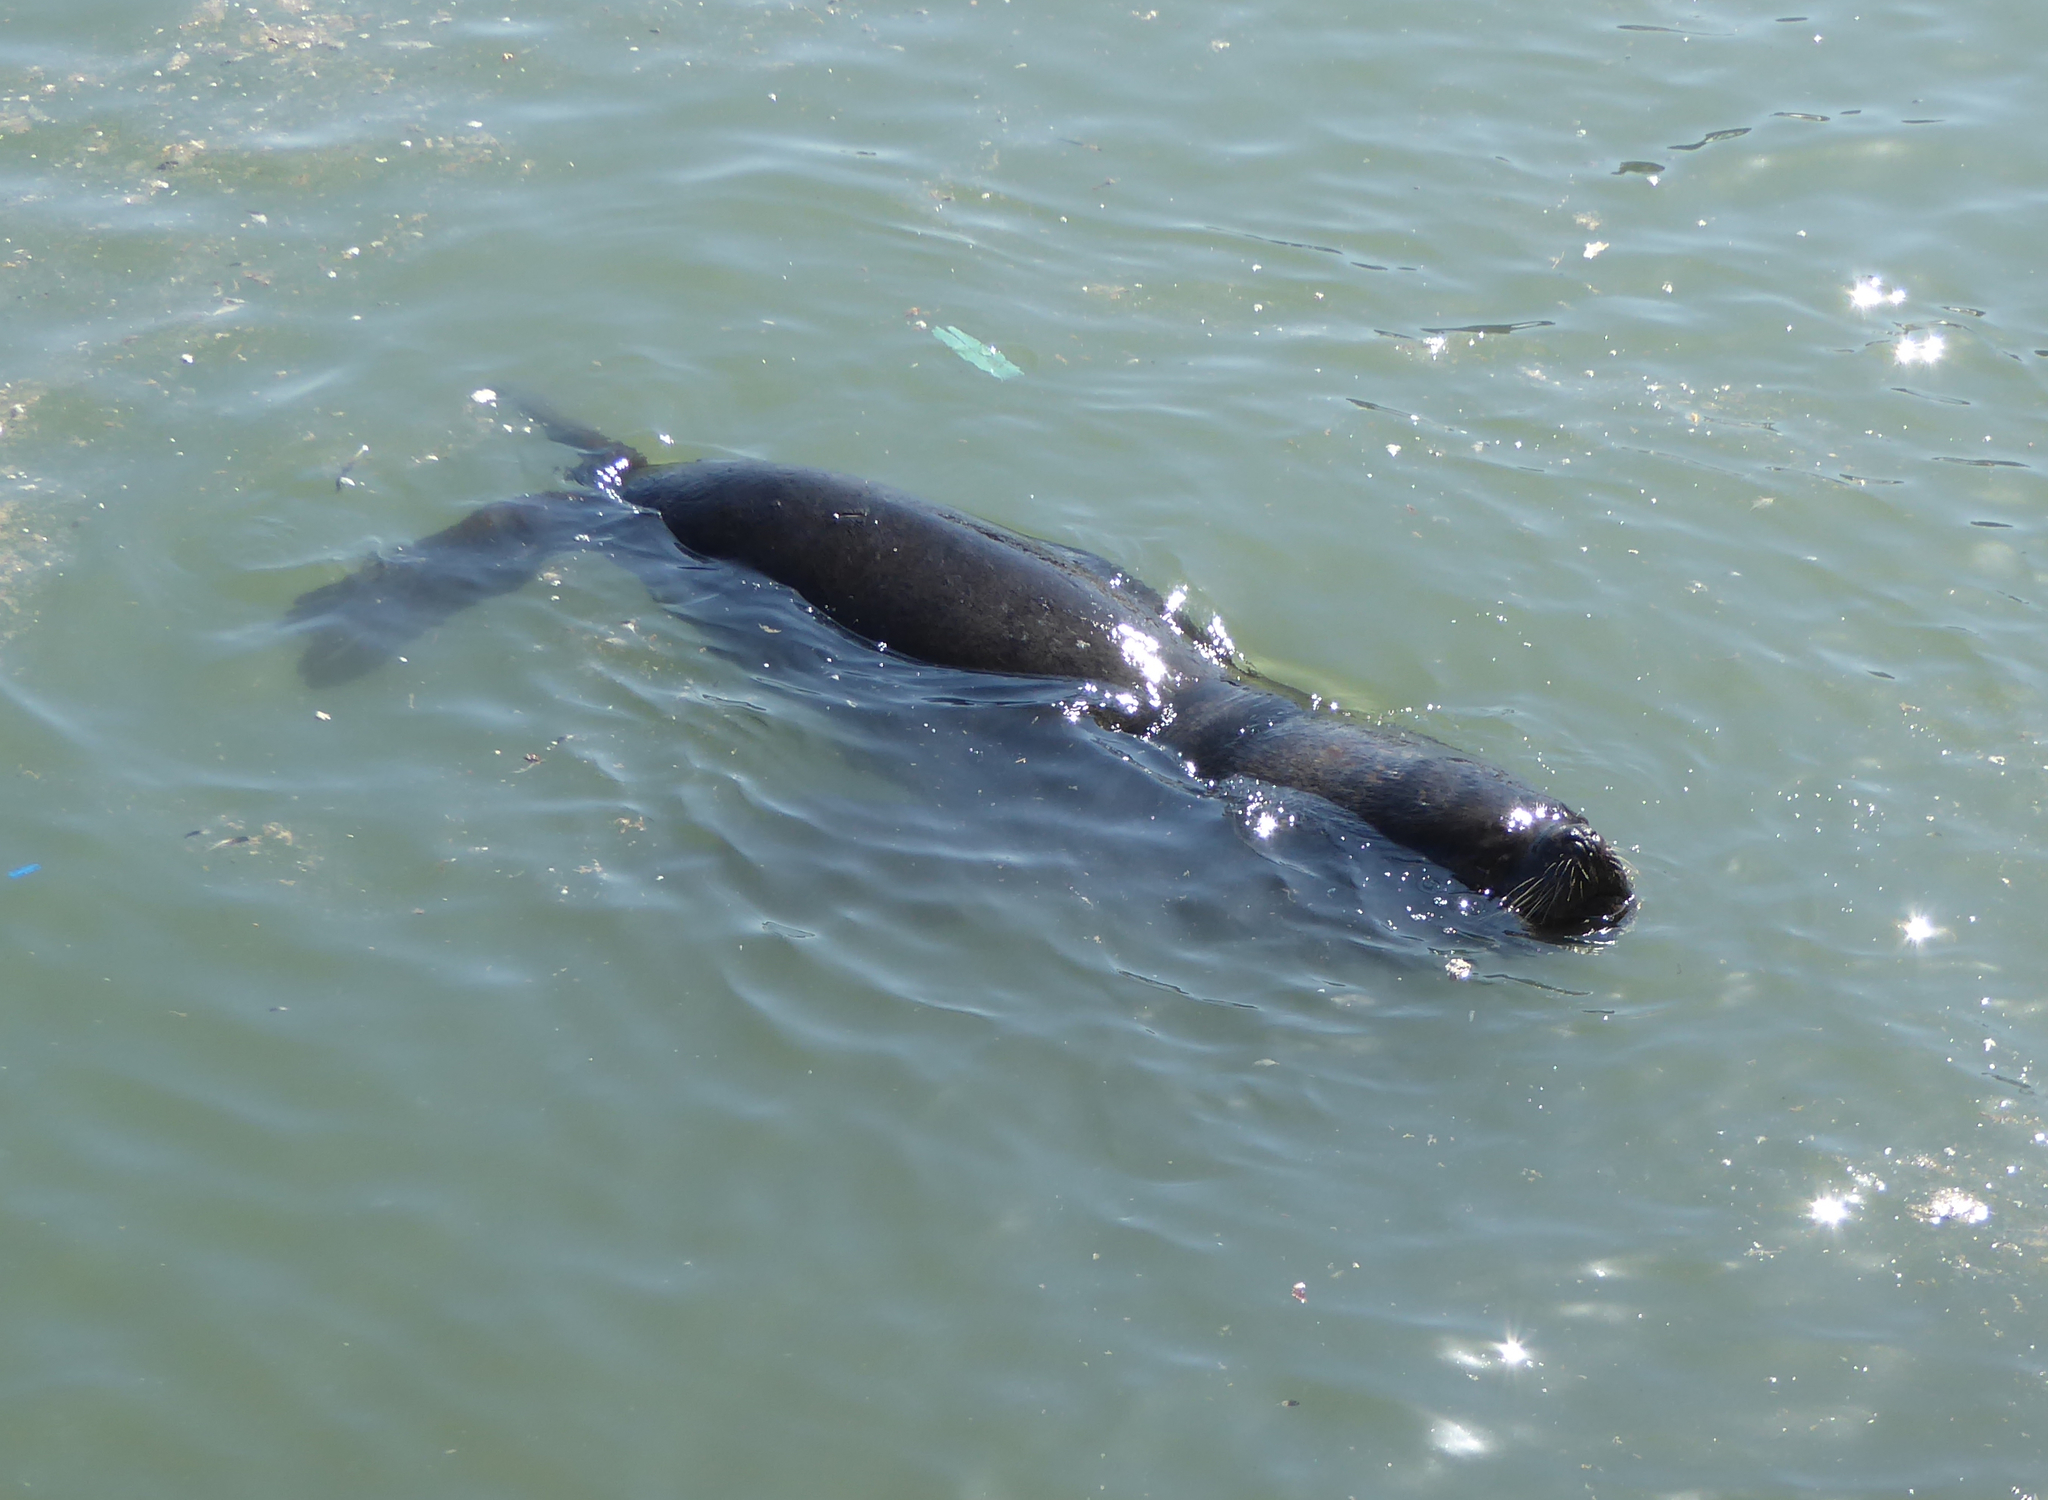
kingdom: Animalia
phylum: Chordata
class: Mammalia
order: Carnivora
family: Otariidae
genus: Otaria
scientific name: Otaria byronia
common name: South american sea lion
